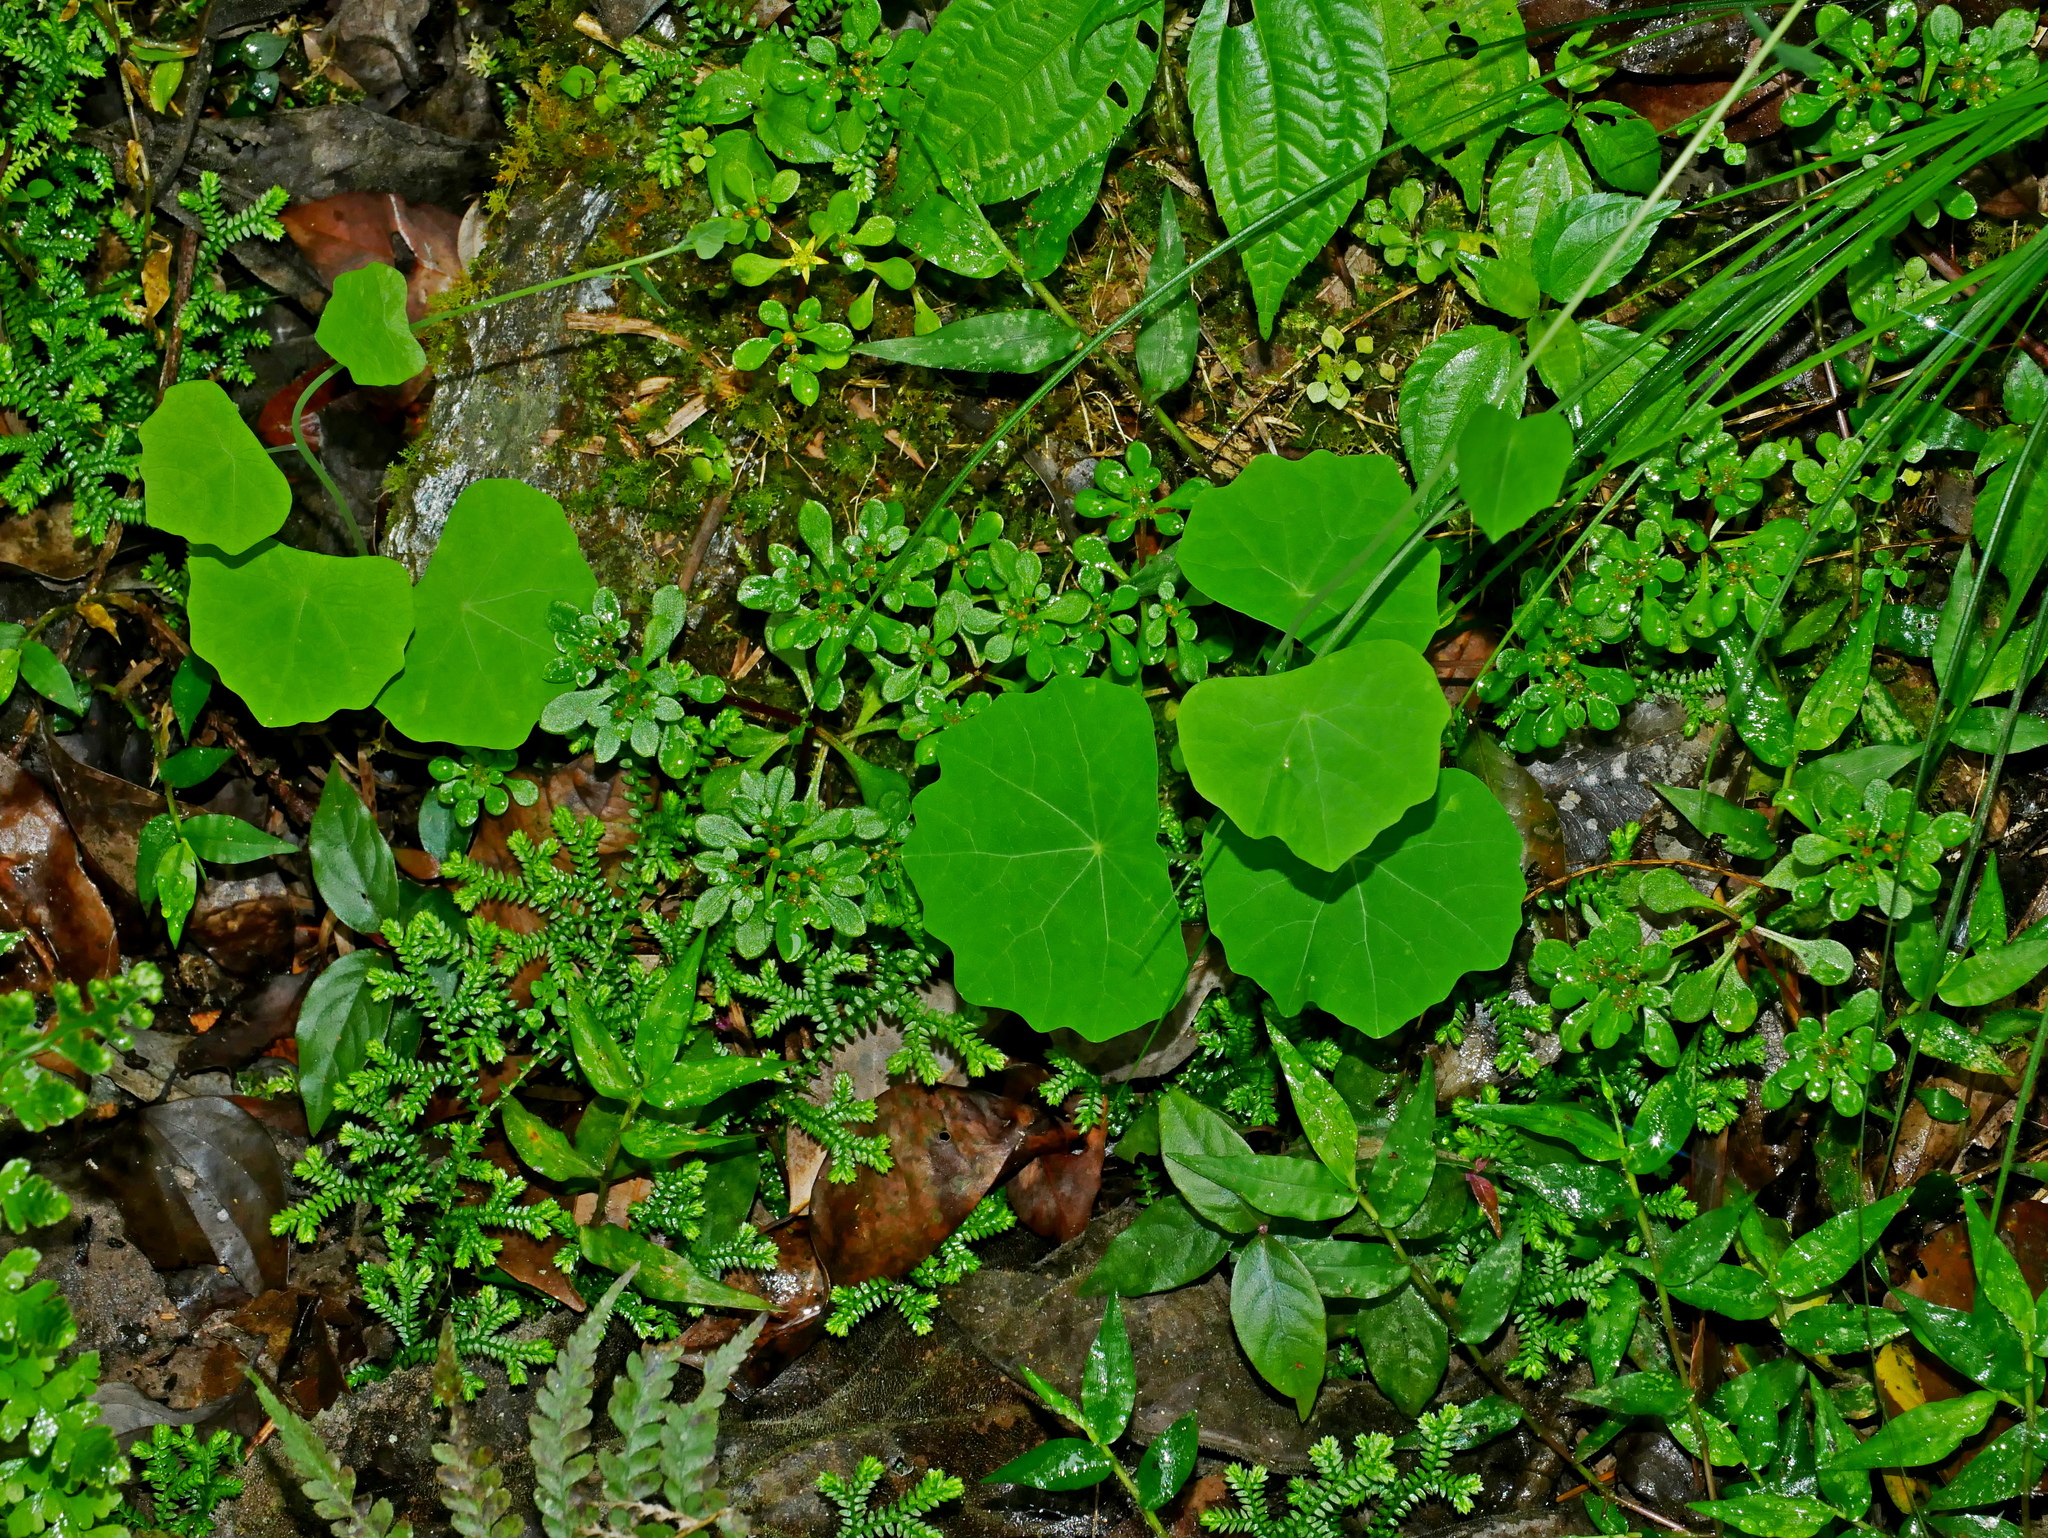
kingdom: Plantae
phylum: Tracheophyta
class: Magnoliopsida
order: Ranunculales
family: Menispermaceae
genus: Stephania
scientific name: Stephania tetrandra
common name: Stephania-root
